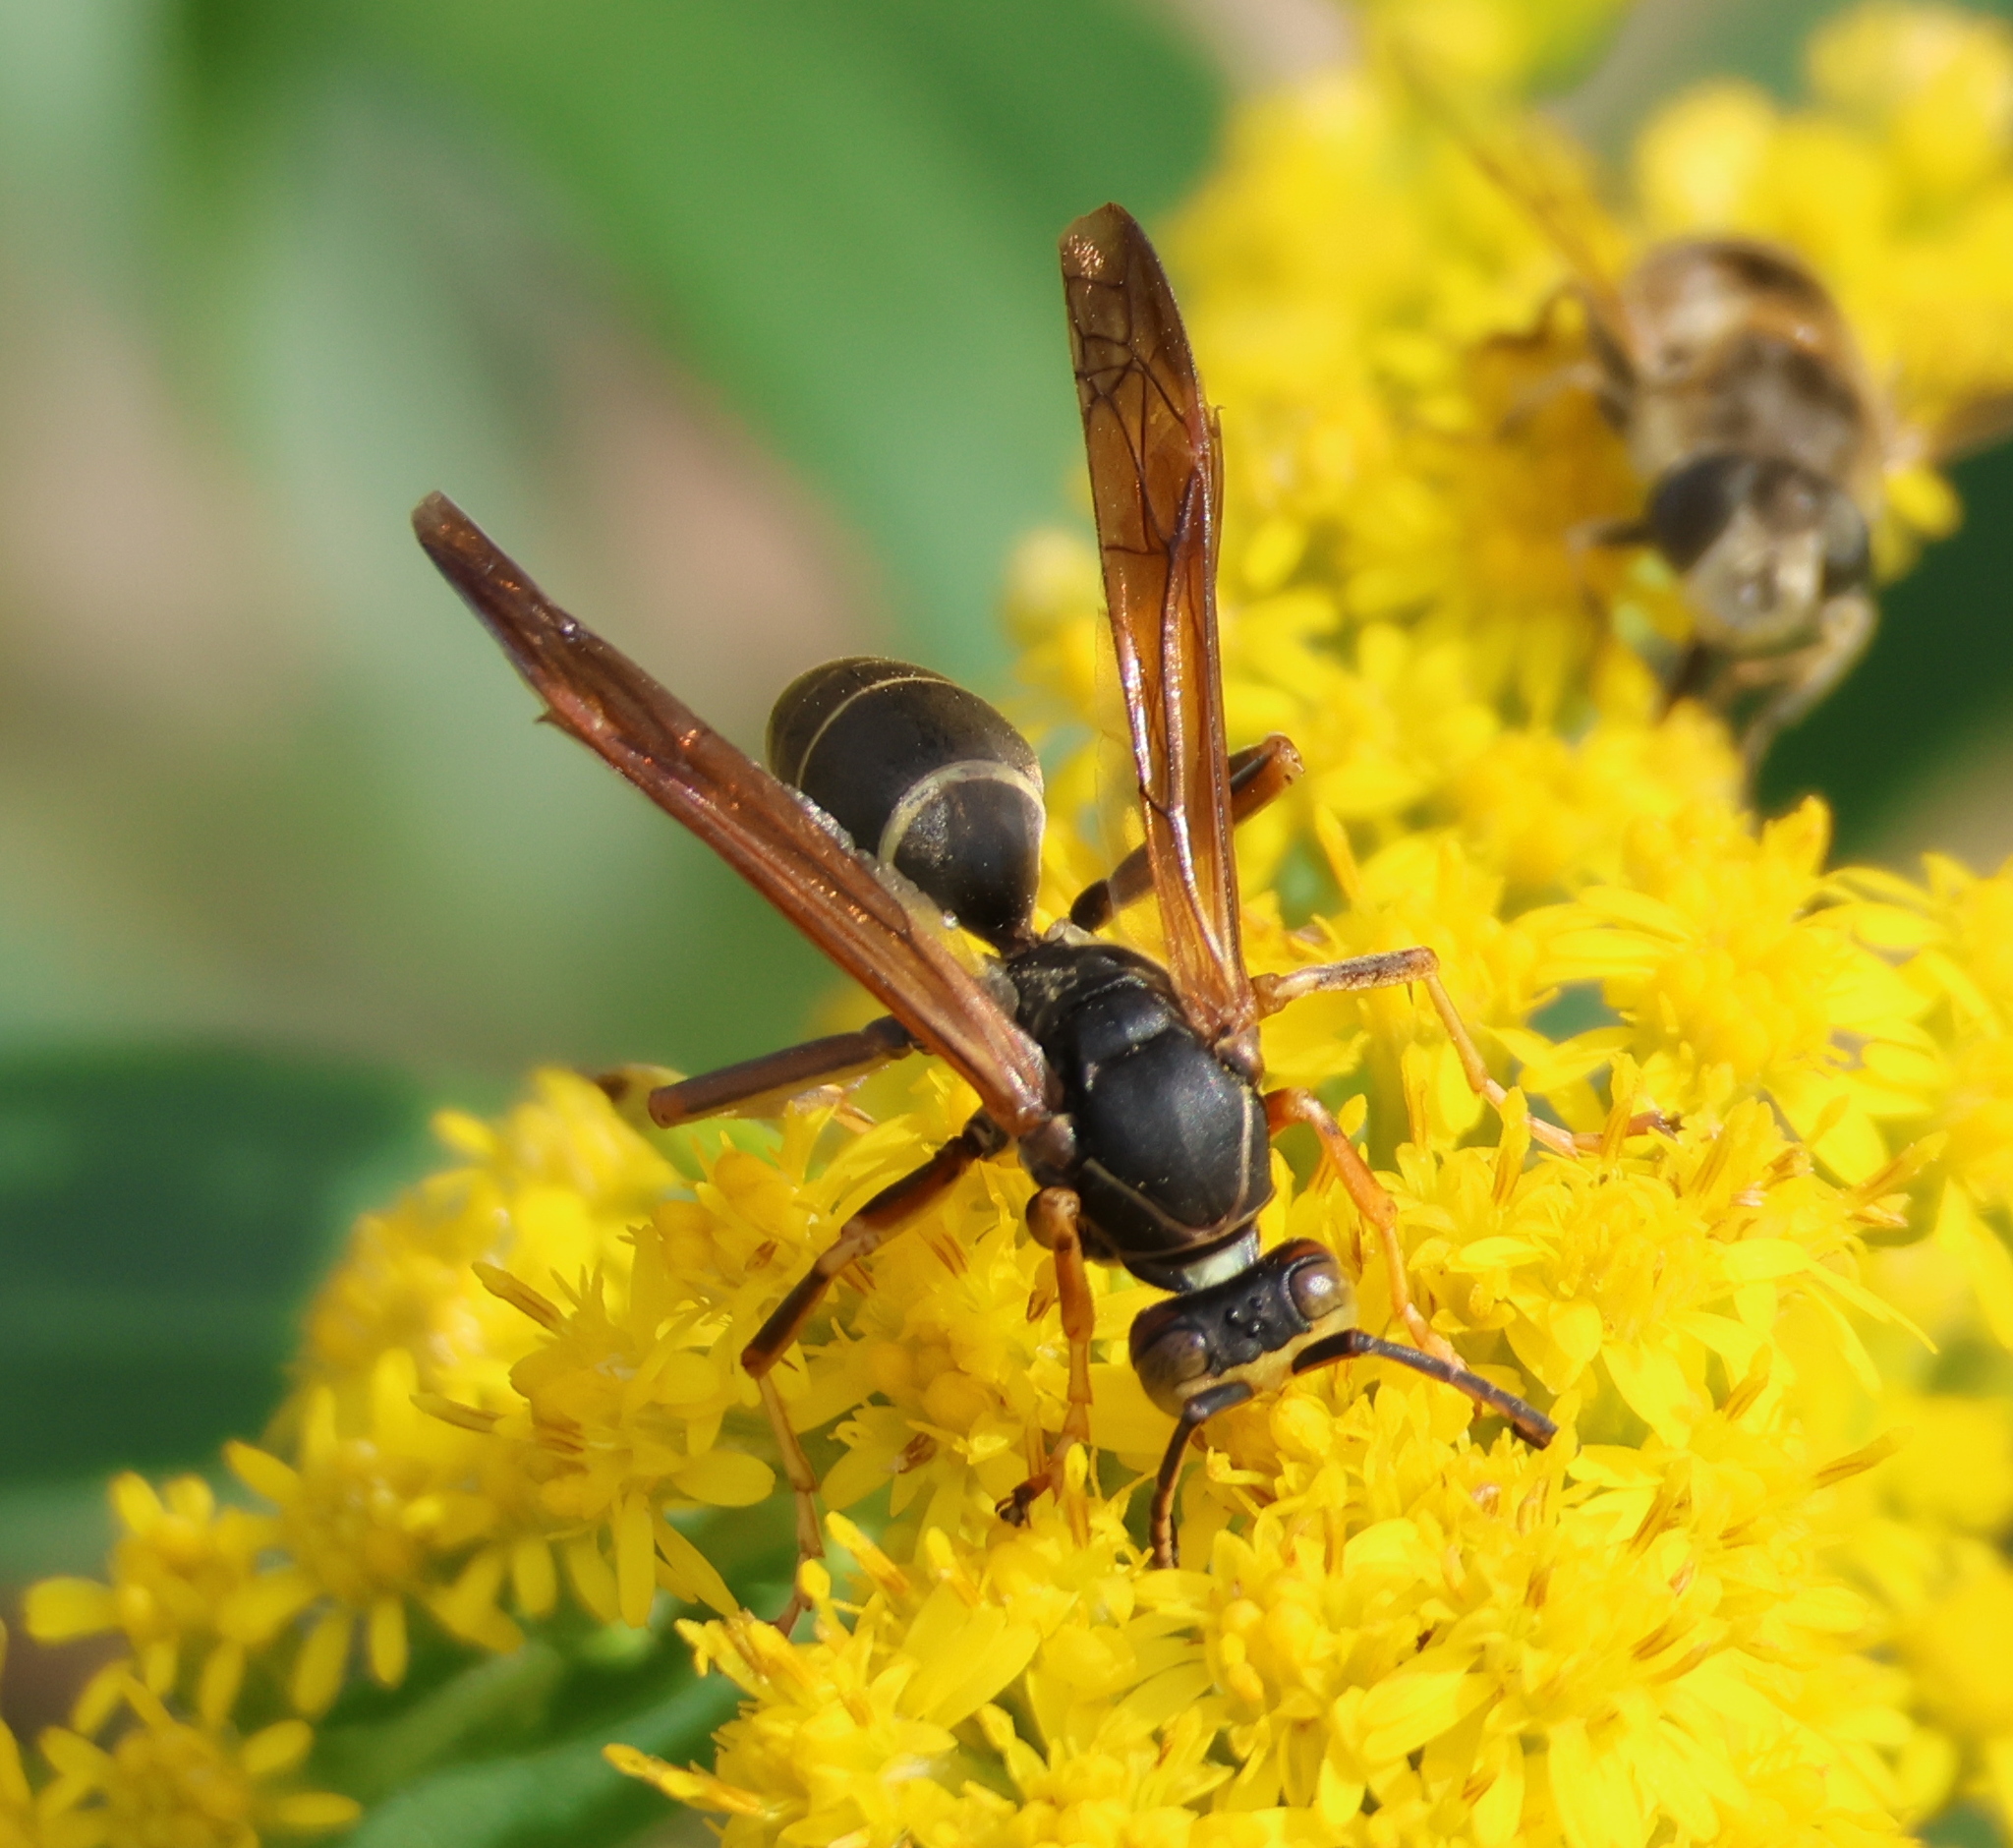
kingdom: Animalia
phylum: Arthropoda
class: Insecta
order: Hymenoptera
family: Eumenidae
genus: Polistes
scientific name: Polistes fuscatus
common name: Dark paper wasp
